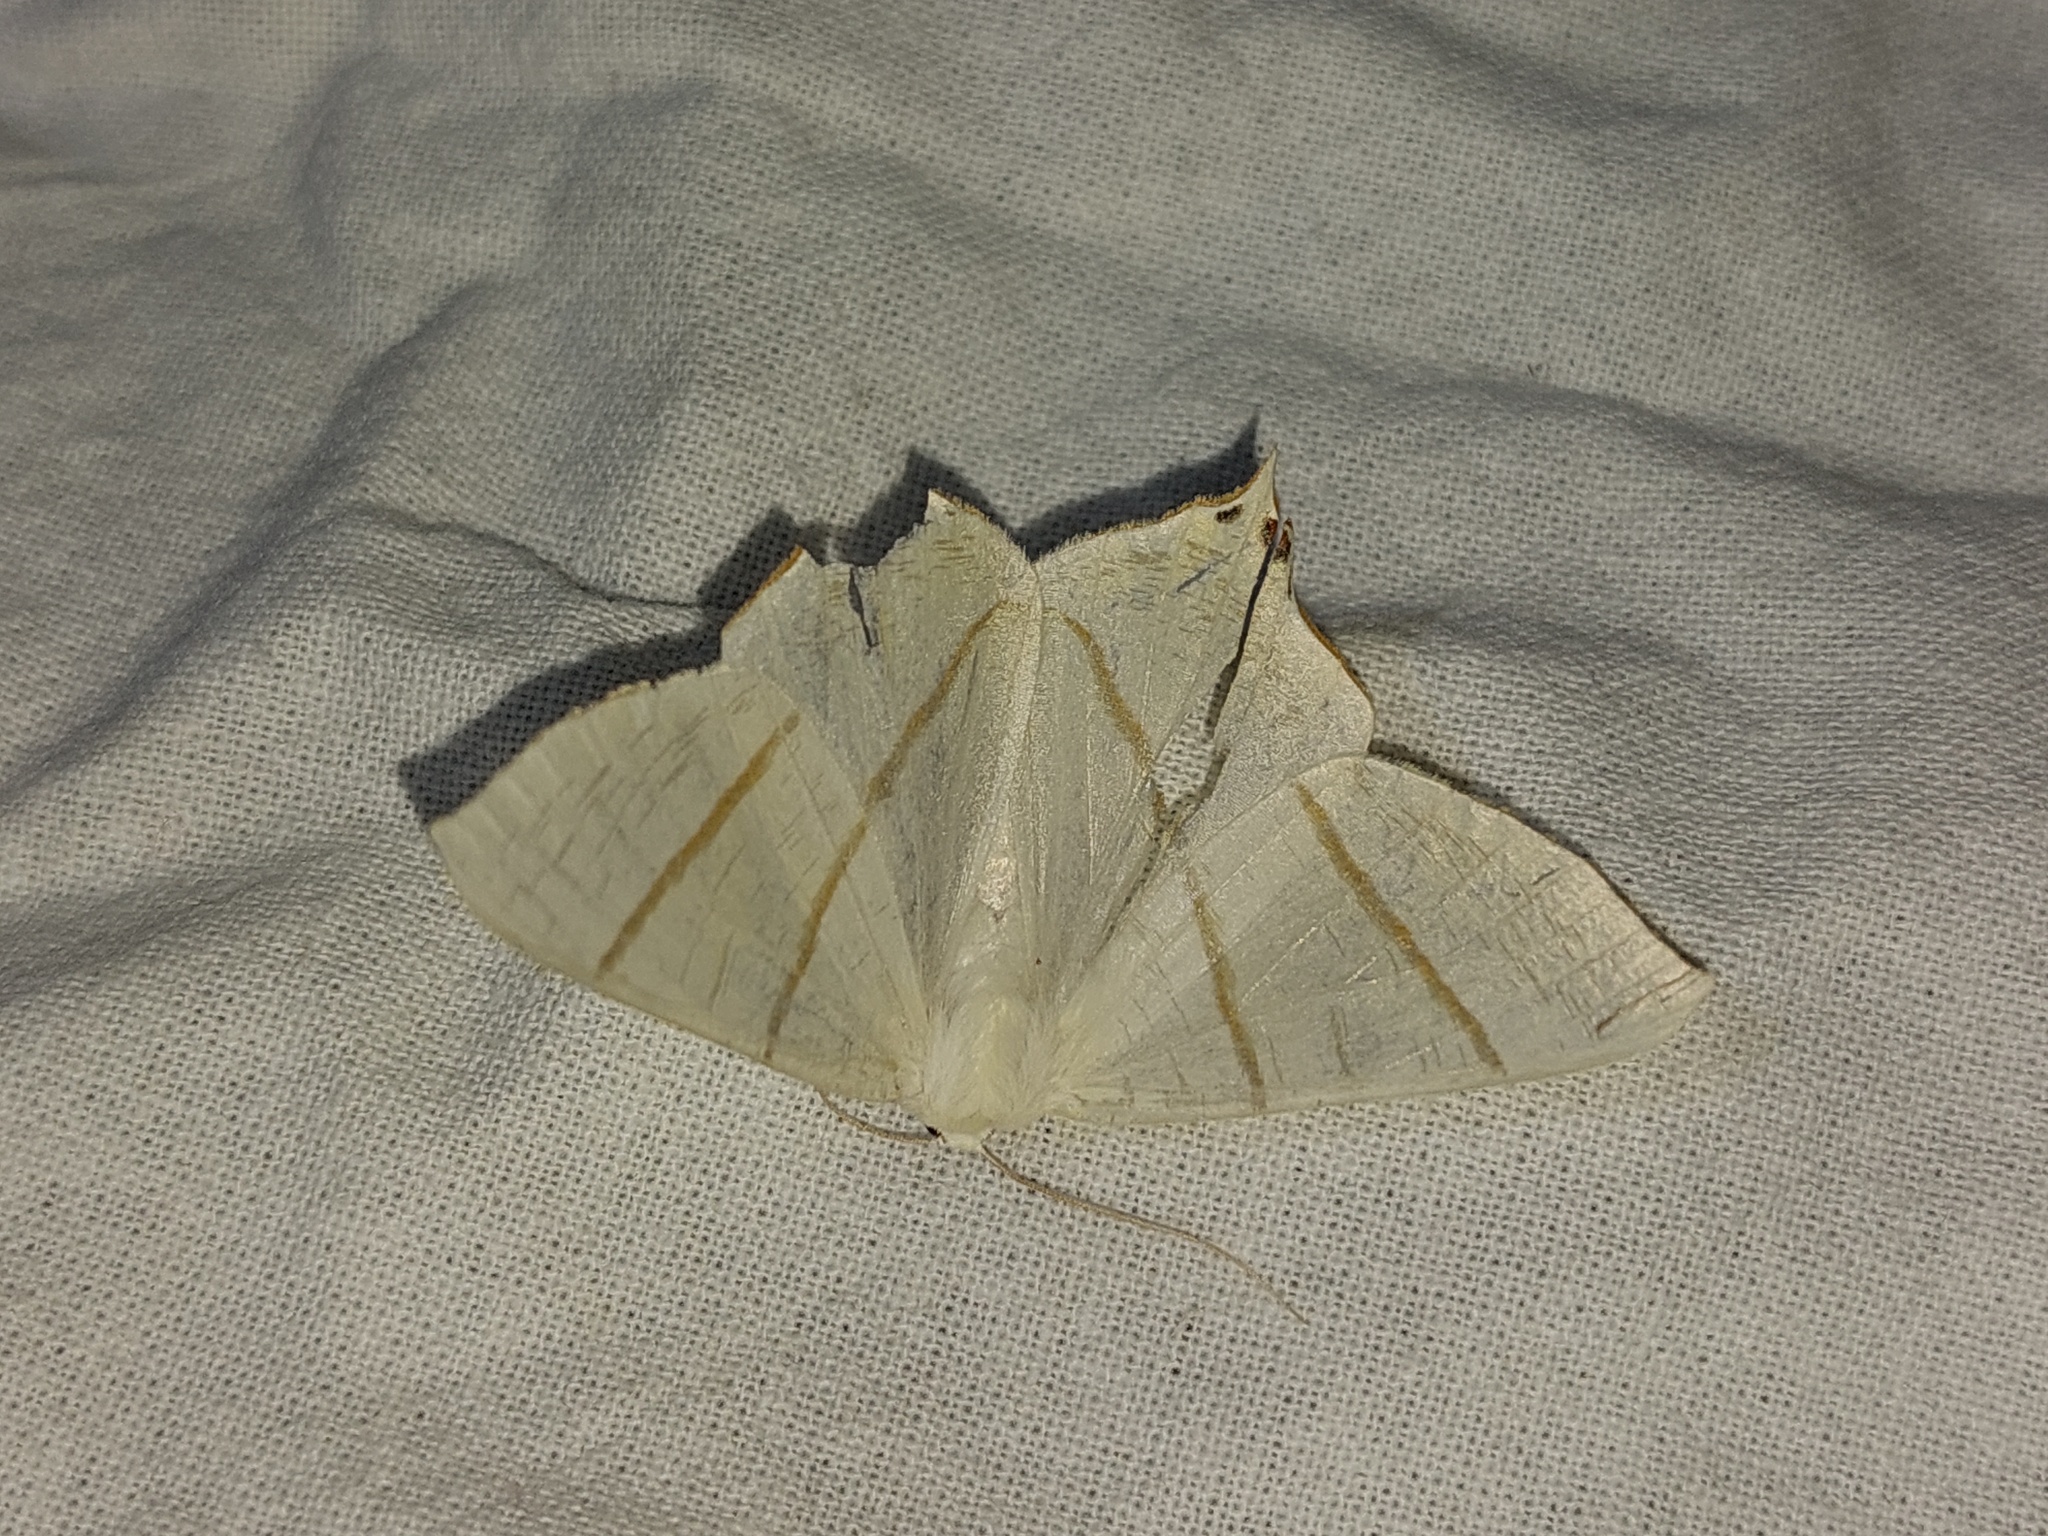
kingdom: Animalia
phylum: Arthropoda
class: Insecta
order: Lepidoptera
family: Geometridae
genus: Ourapteryx
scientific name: Ourapteryx sambucaria
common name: Swallow-tailed moth
